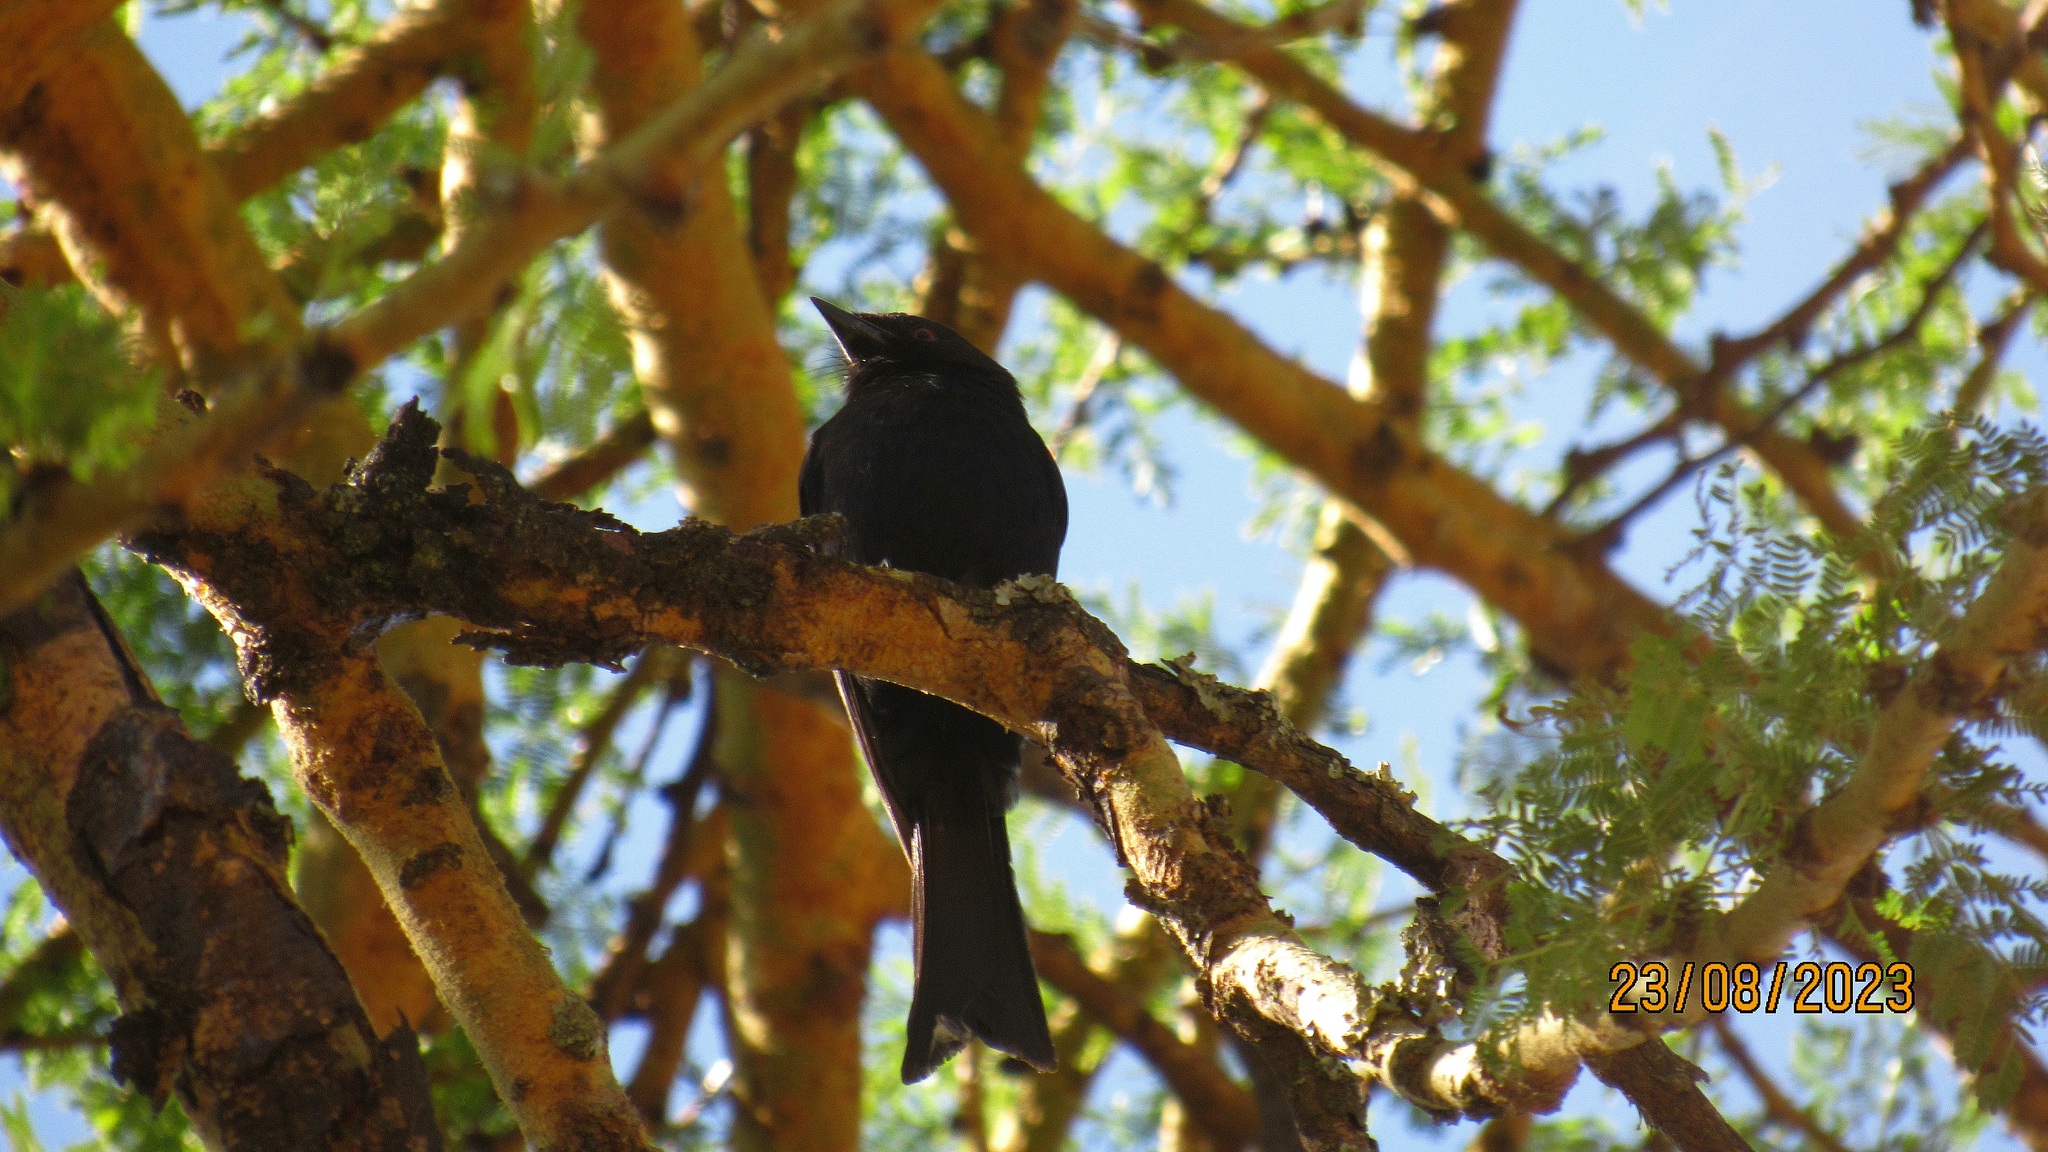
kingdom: Animalia
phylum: Chordata
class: Aves
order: Passeriformes
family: Dicruridae
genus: Dicrurus
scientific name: Dicrurus adsimilis
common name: Fork-tailed drongo
